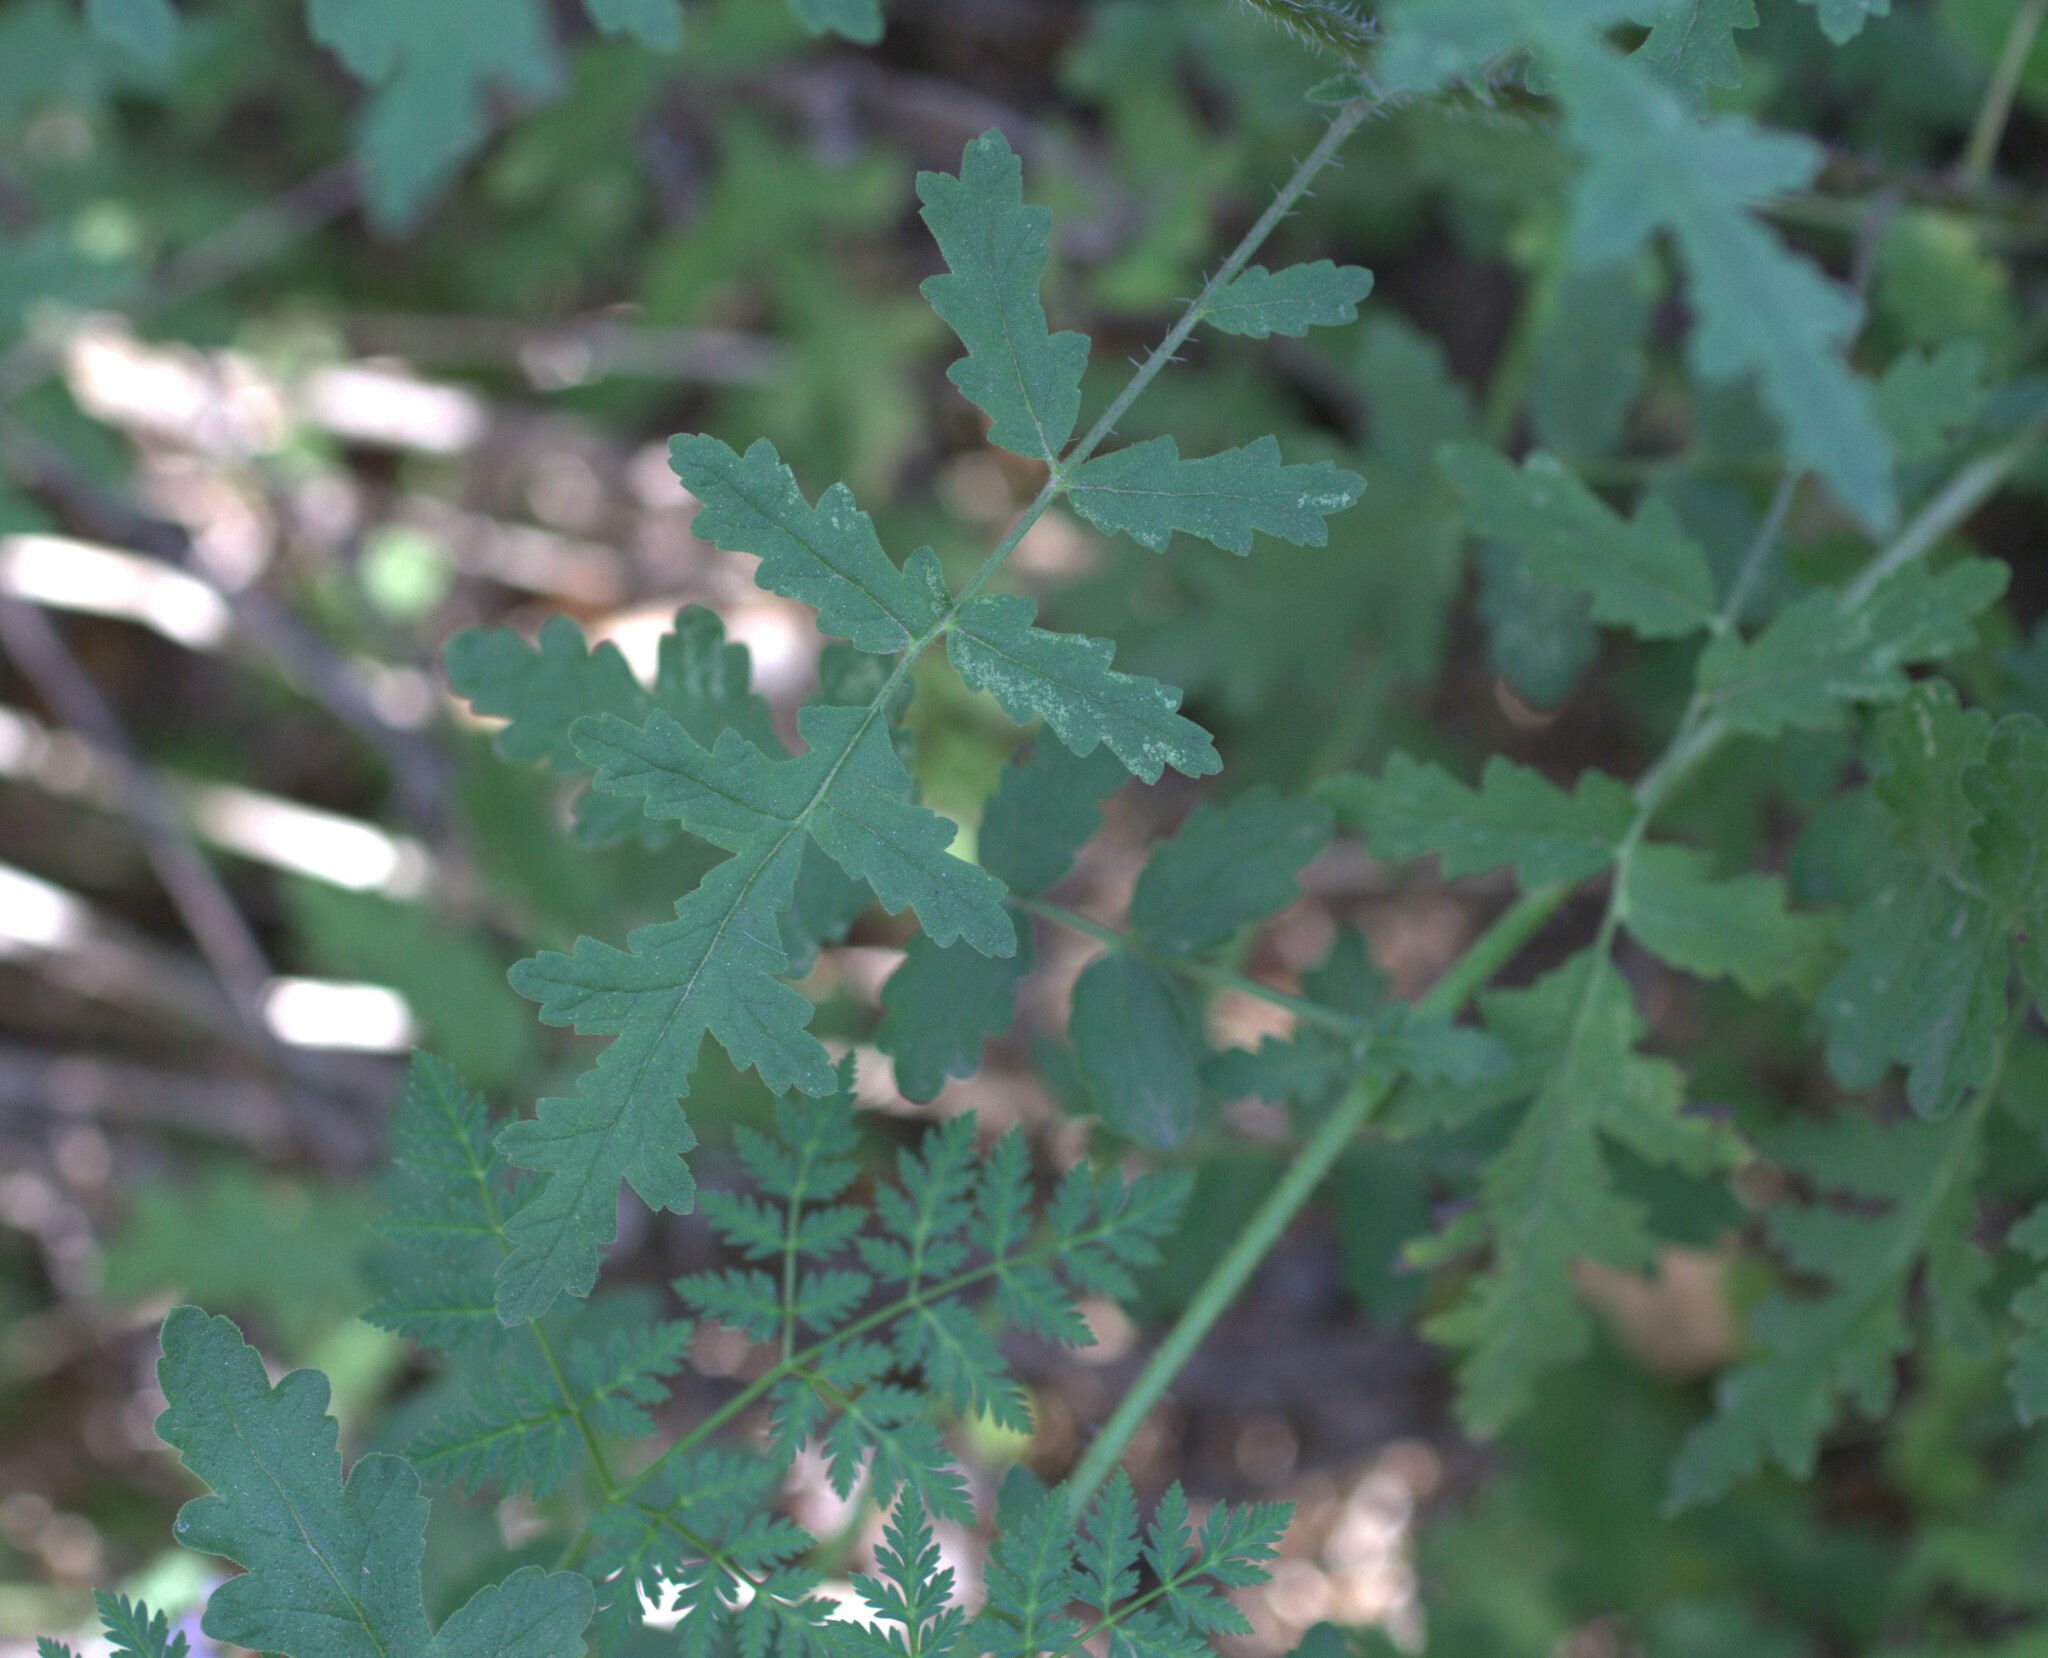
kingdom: Plantae
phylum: Tracheophyta
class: Magnoliopsida
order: Boraginales
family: Hydrophyllaceae
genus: Phacelia
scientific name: Phacelia ramosissima
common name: Branching phacelia
